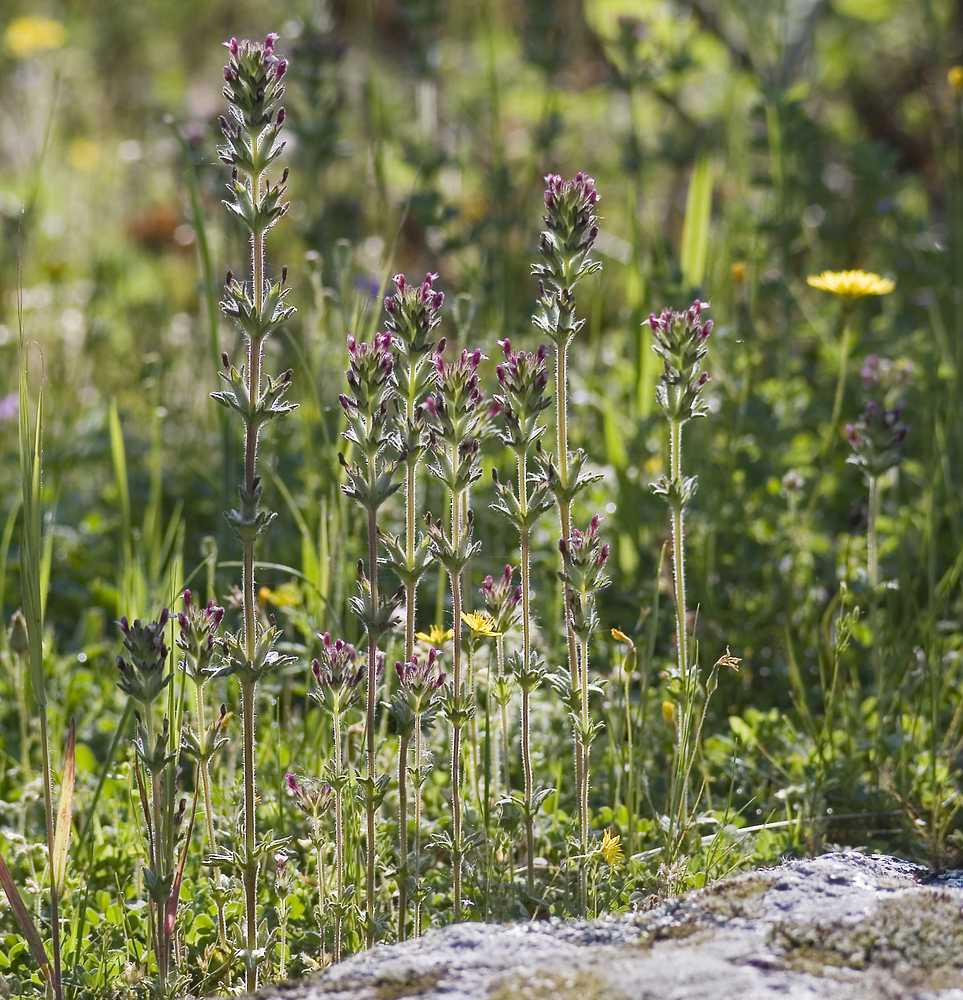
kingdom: Plantae
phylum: Tracheophyta
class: Magnoliopsida
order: Lamiales
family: Orobanchaceae
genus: Parentucellia
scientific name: Parentucellia latifolia
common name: Broadleaf glandweed
